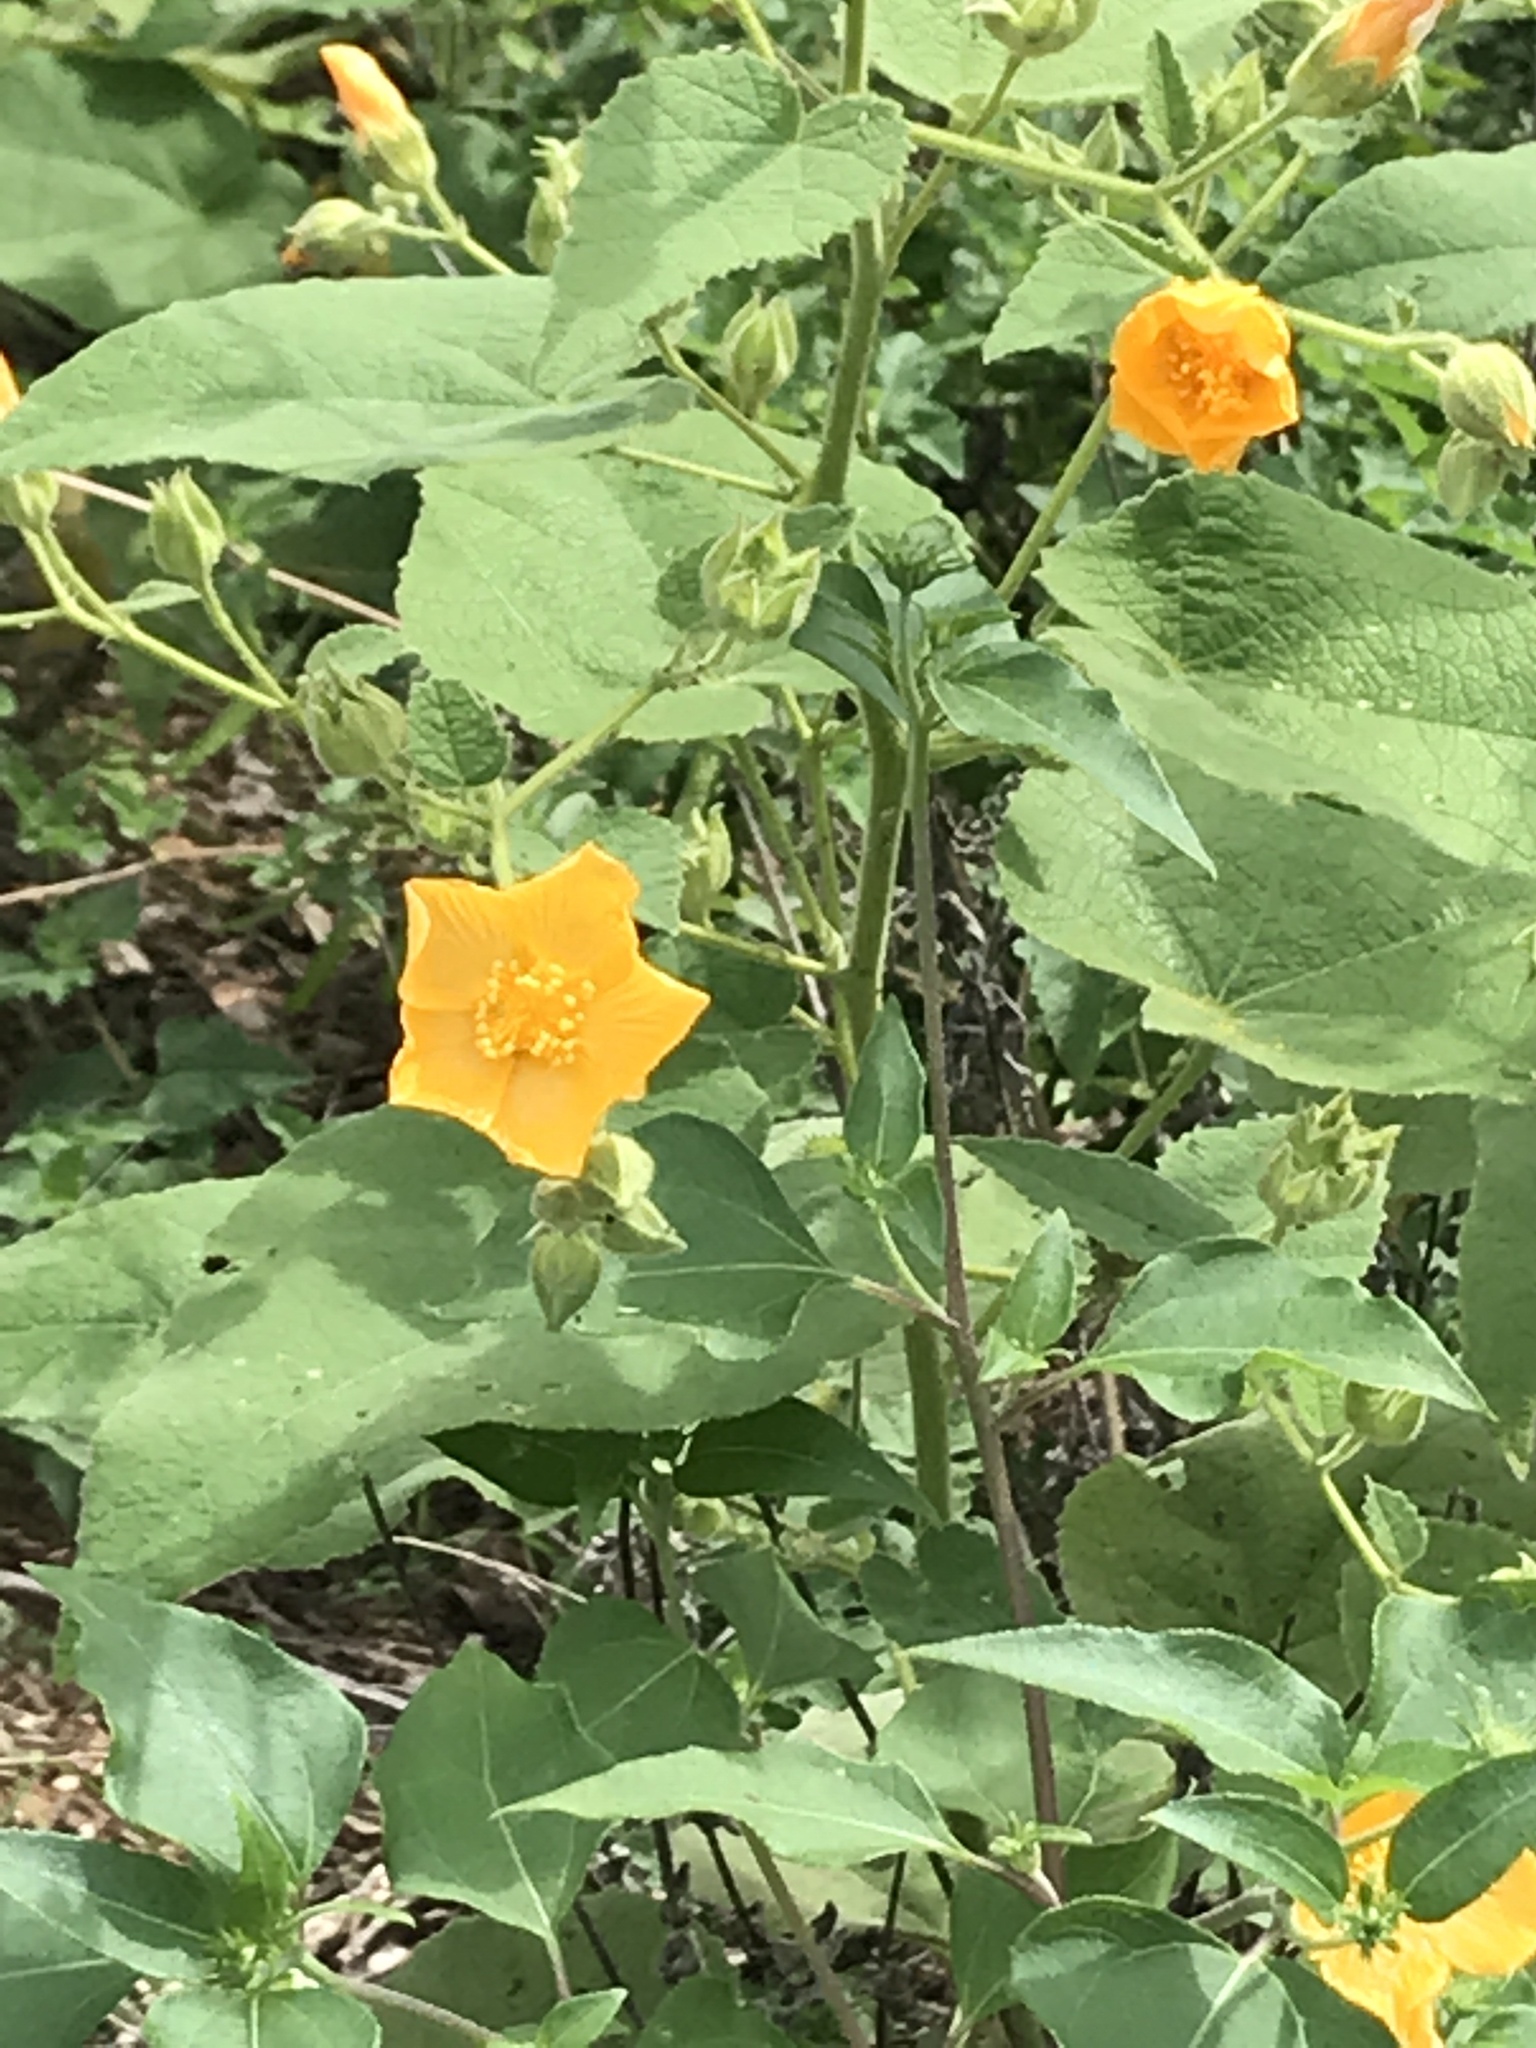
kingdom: Plantae
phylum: Tracheophyta
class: Magnoliopsida
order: Malvales
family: Malvaceae
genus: Allowissadula
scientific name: Allowissadula holosericea
